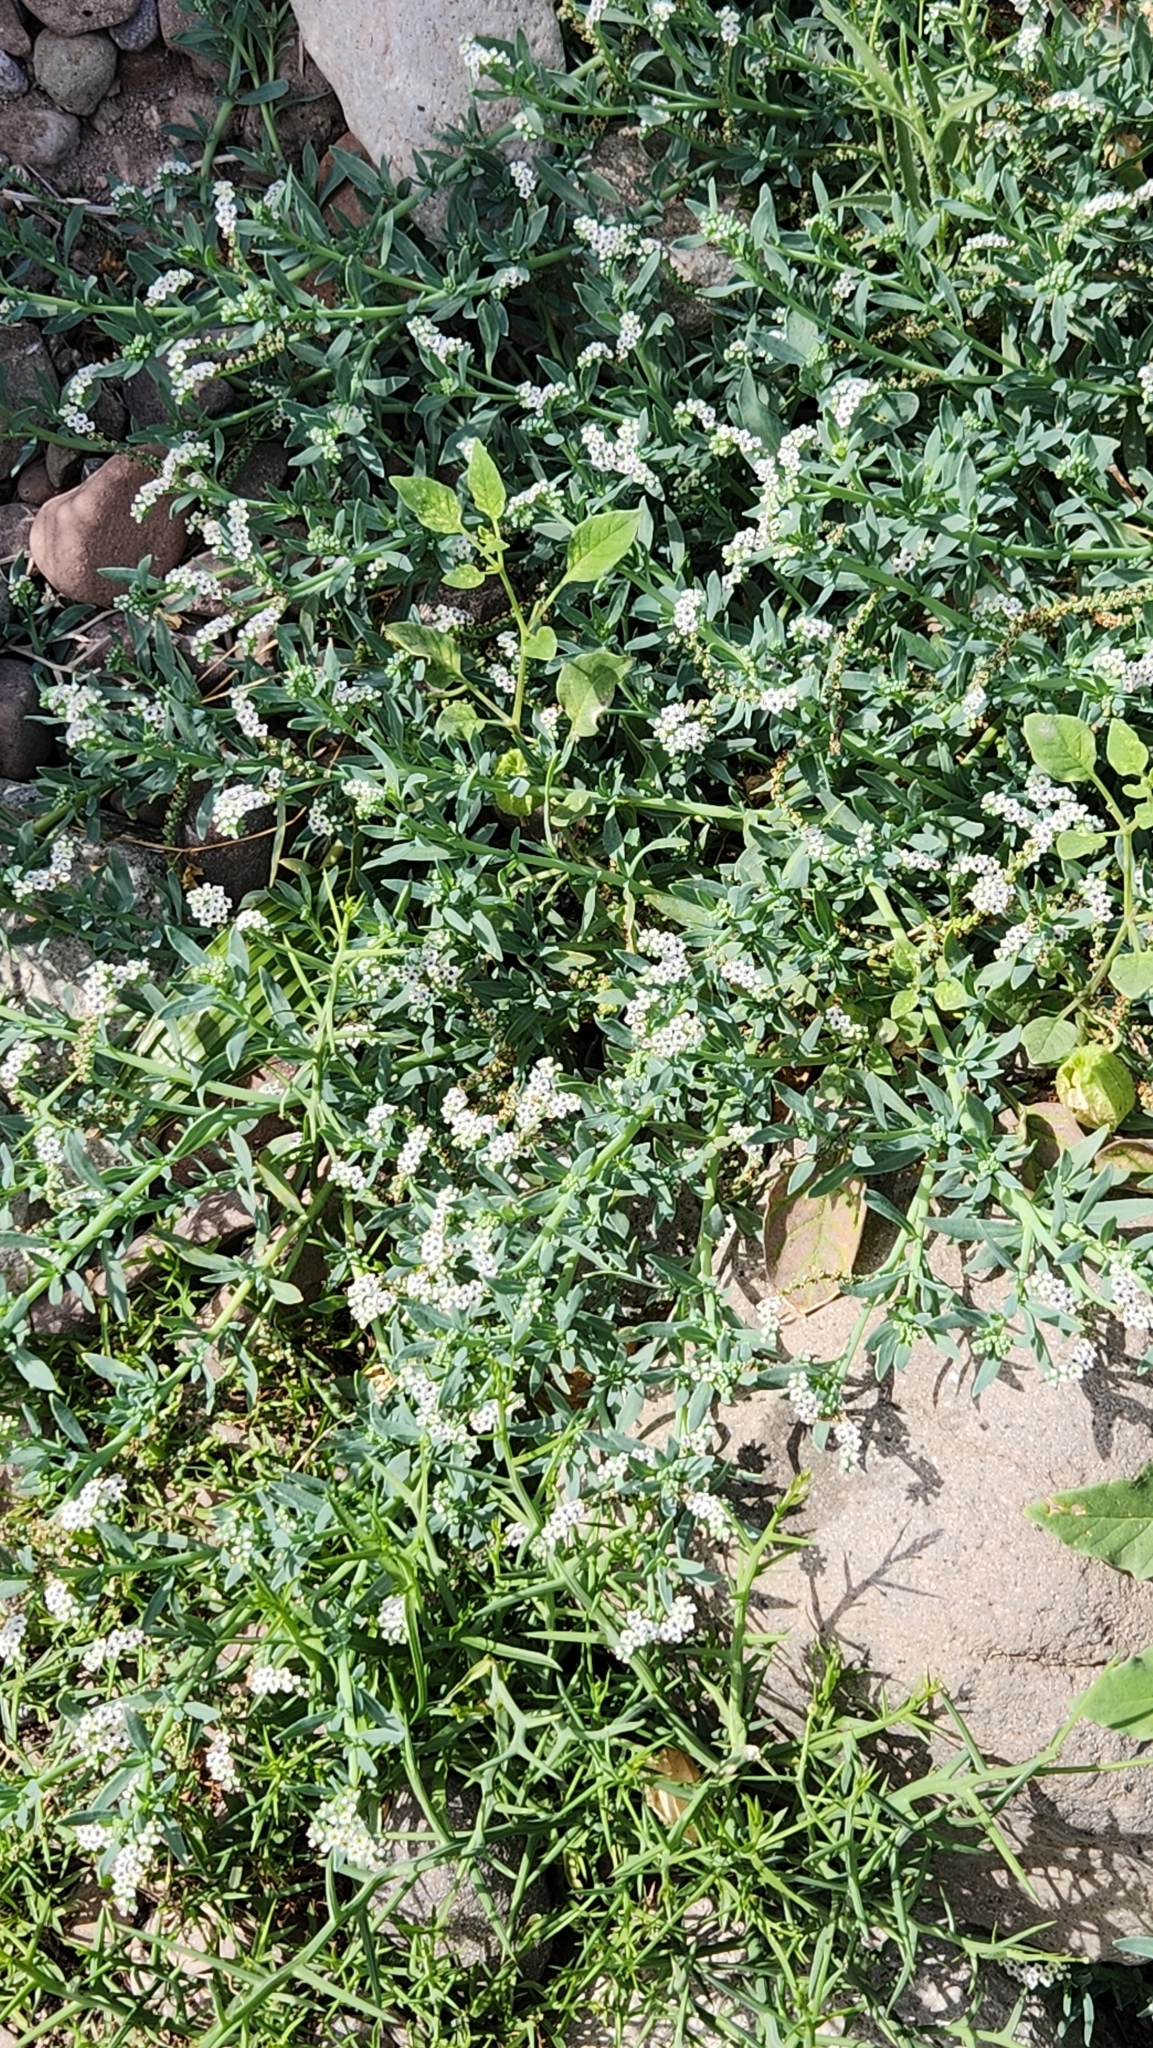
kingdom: Plantae
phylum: Tracheophyta
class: Magnoliopsida
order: Boraginales
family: Heliotropiaceae
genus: Heliotropium
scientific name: Heliotropium curassavicum
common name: Seaside heliotrope
